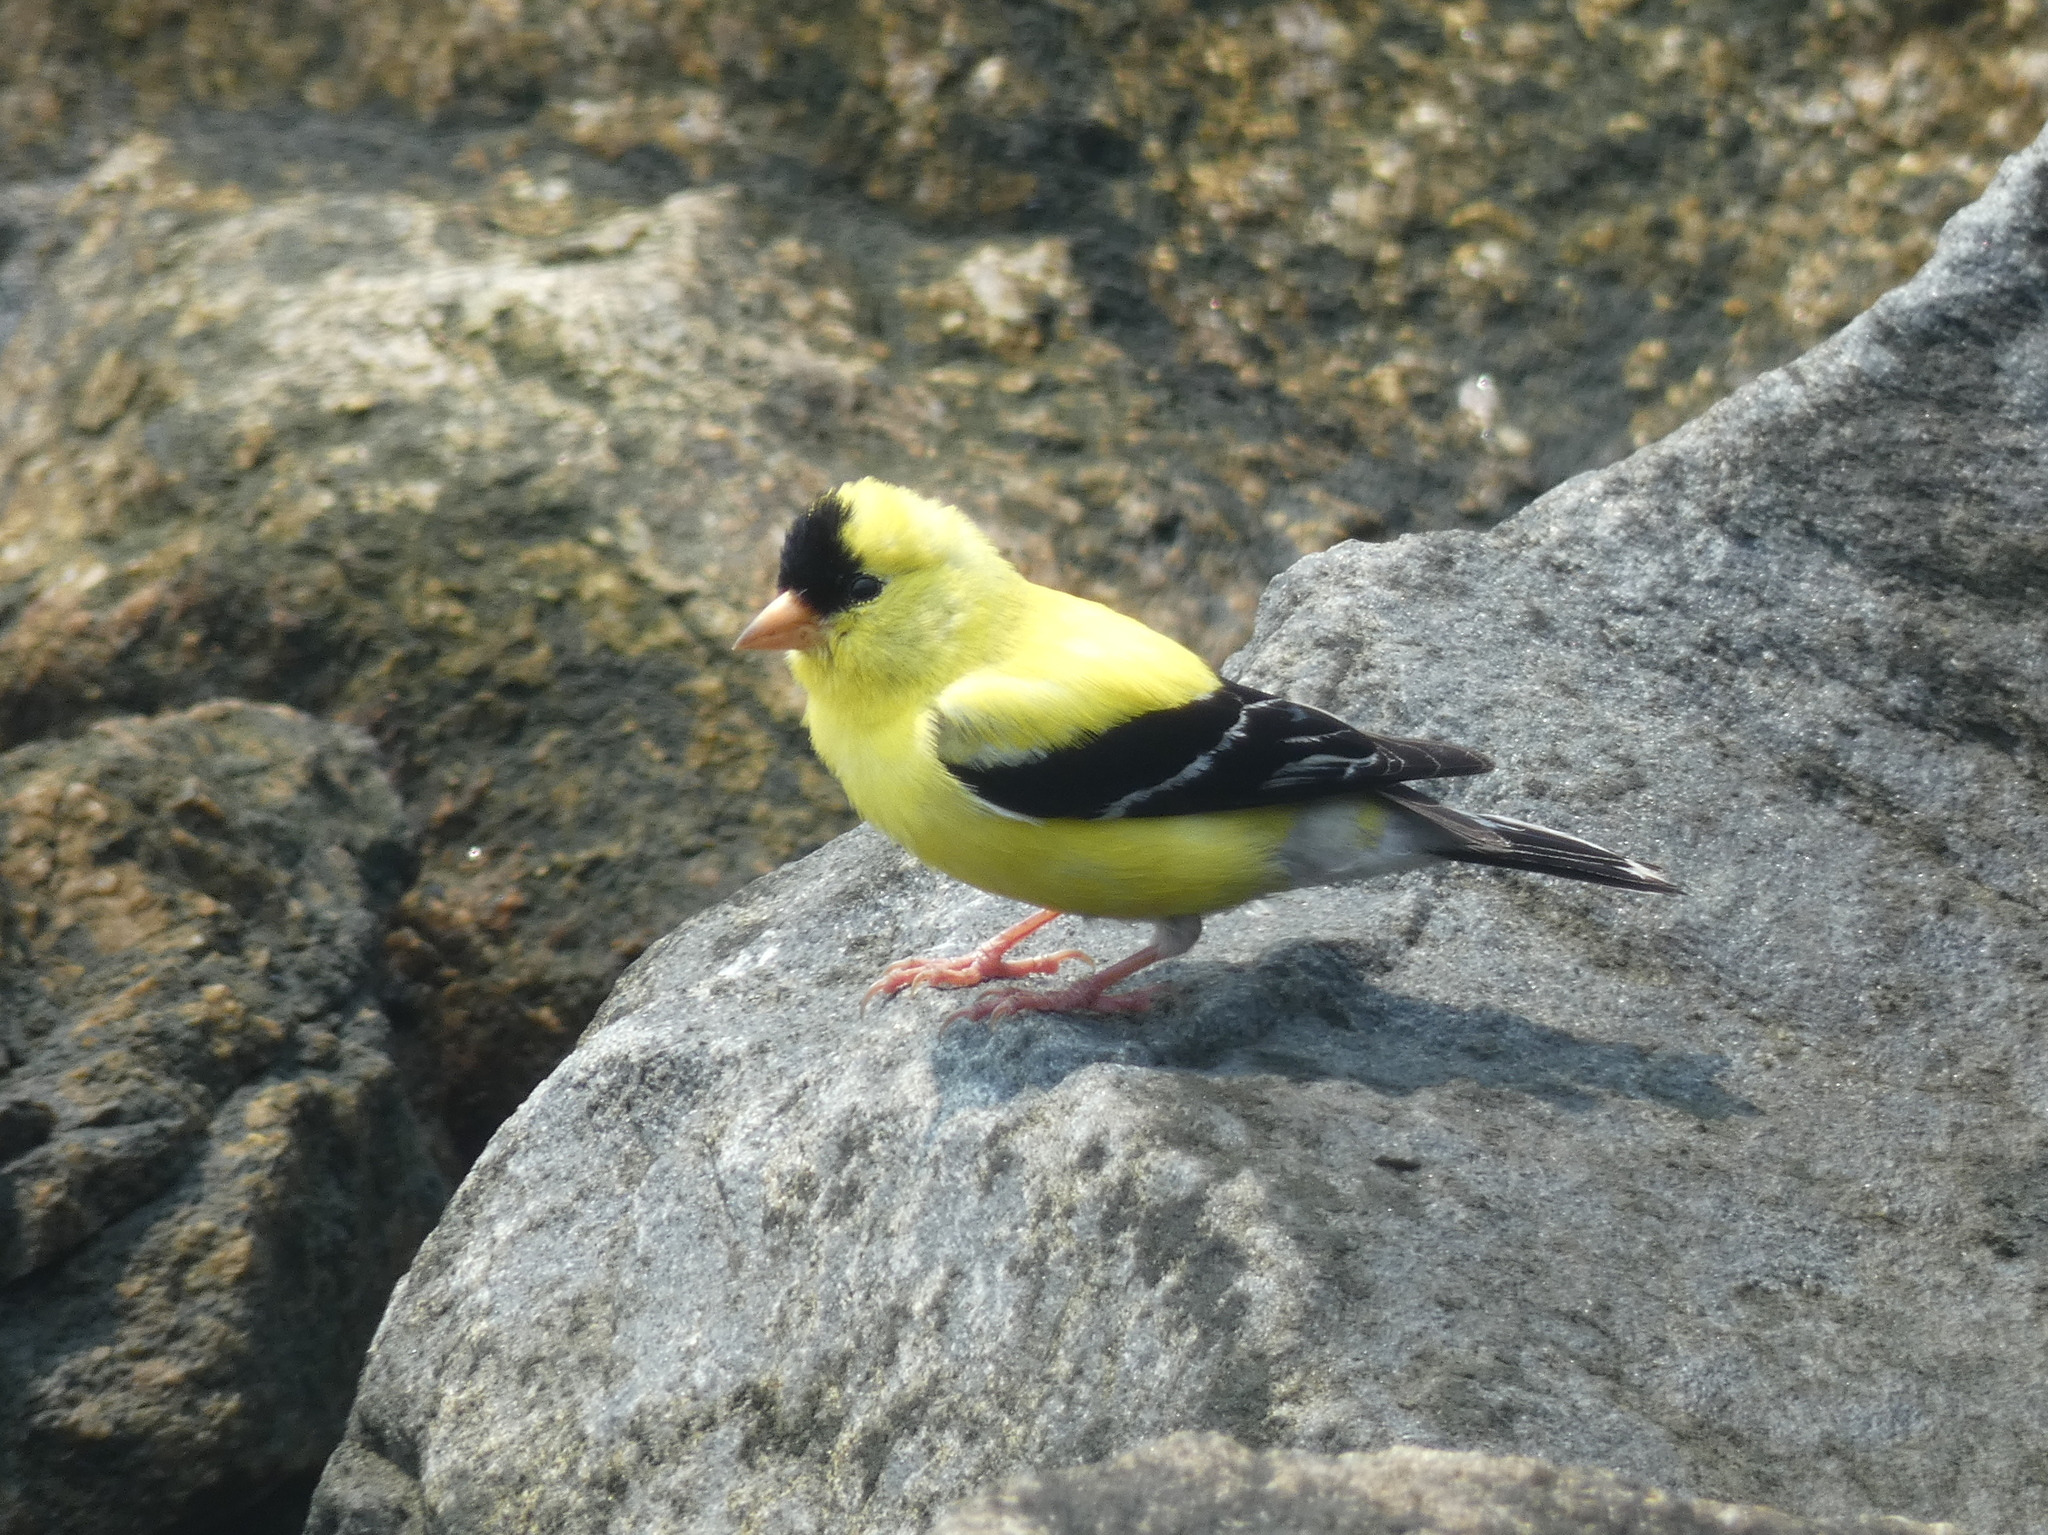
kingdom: Animalia
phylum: Chordata
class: Aves
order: Passeriformes
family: Fringillidae
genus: Spinus
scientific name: Spinus tristis
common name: American goldfinch
